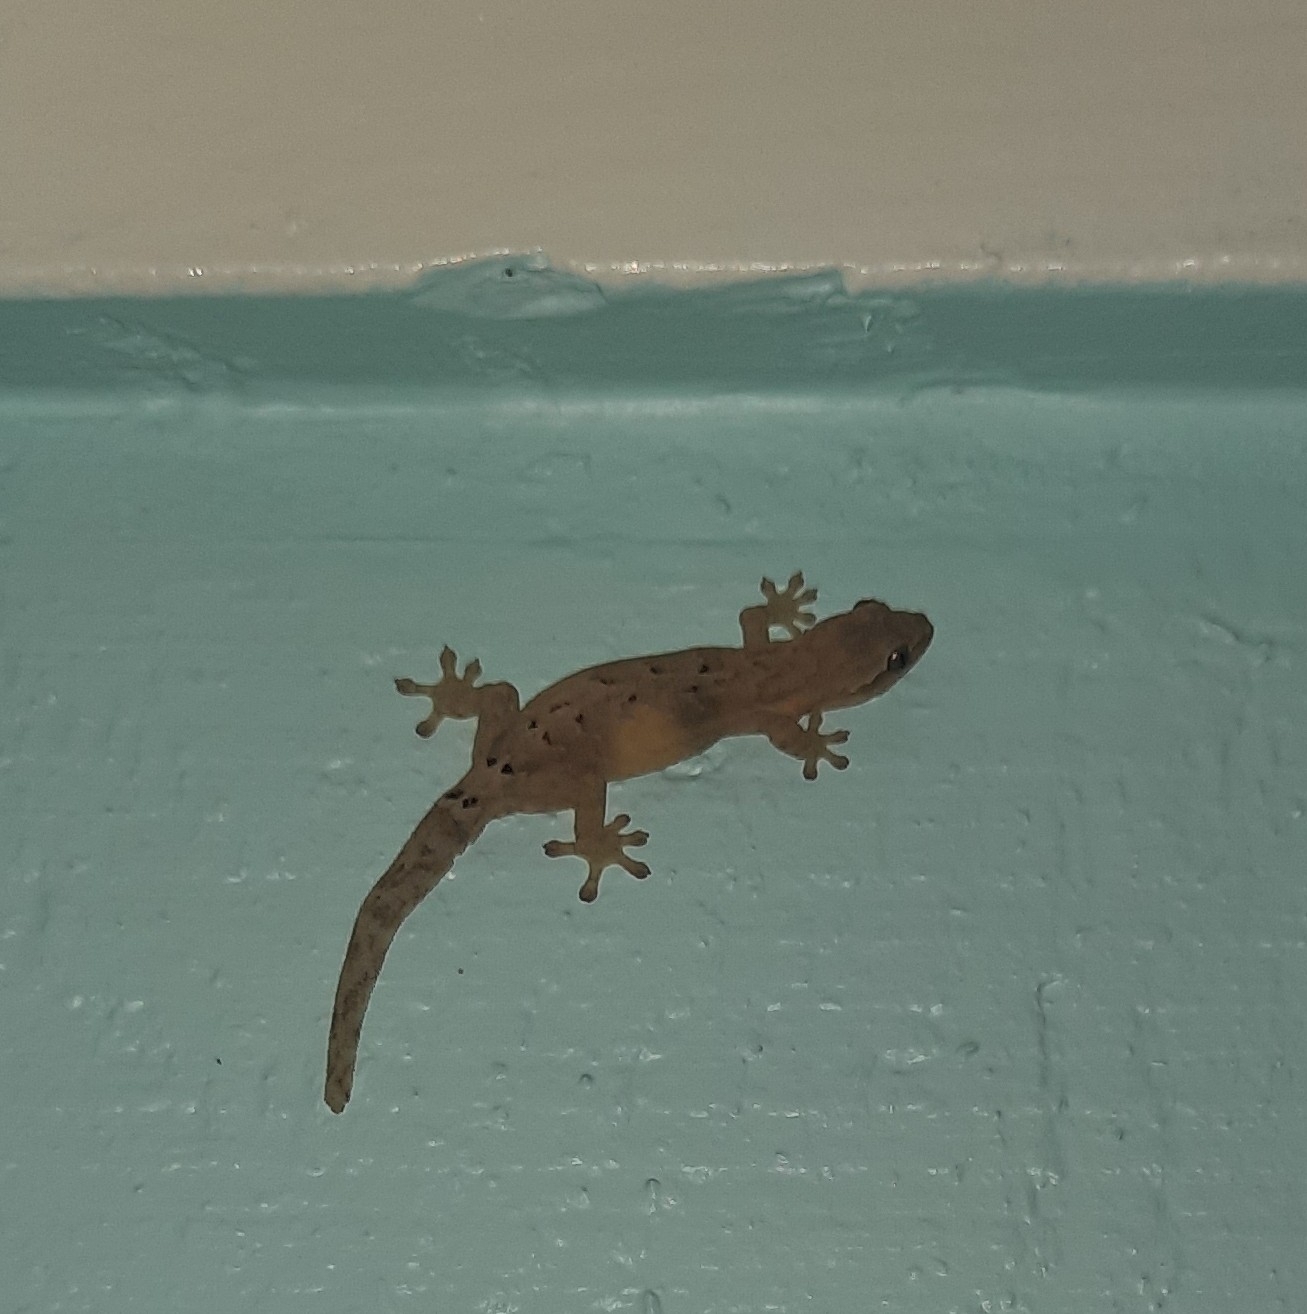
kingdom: Animalia
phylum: Chordata
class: Squamata
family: Gekkonidae
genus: Lepidodactylus
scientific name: Lepidodactylus lugubris
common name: Mourning gecko
